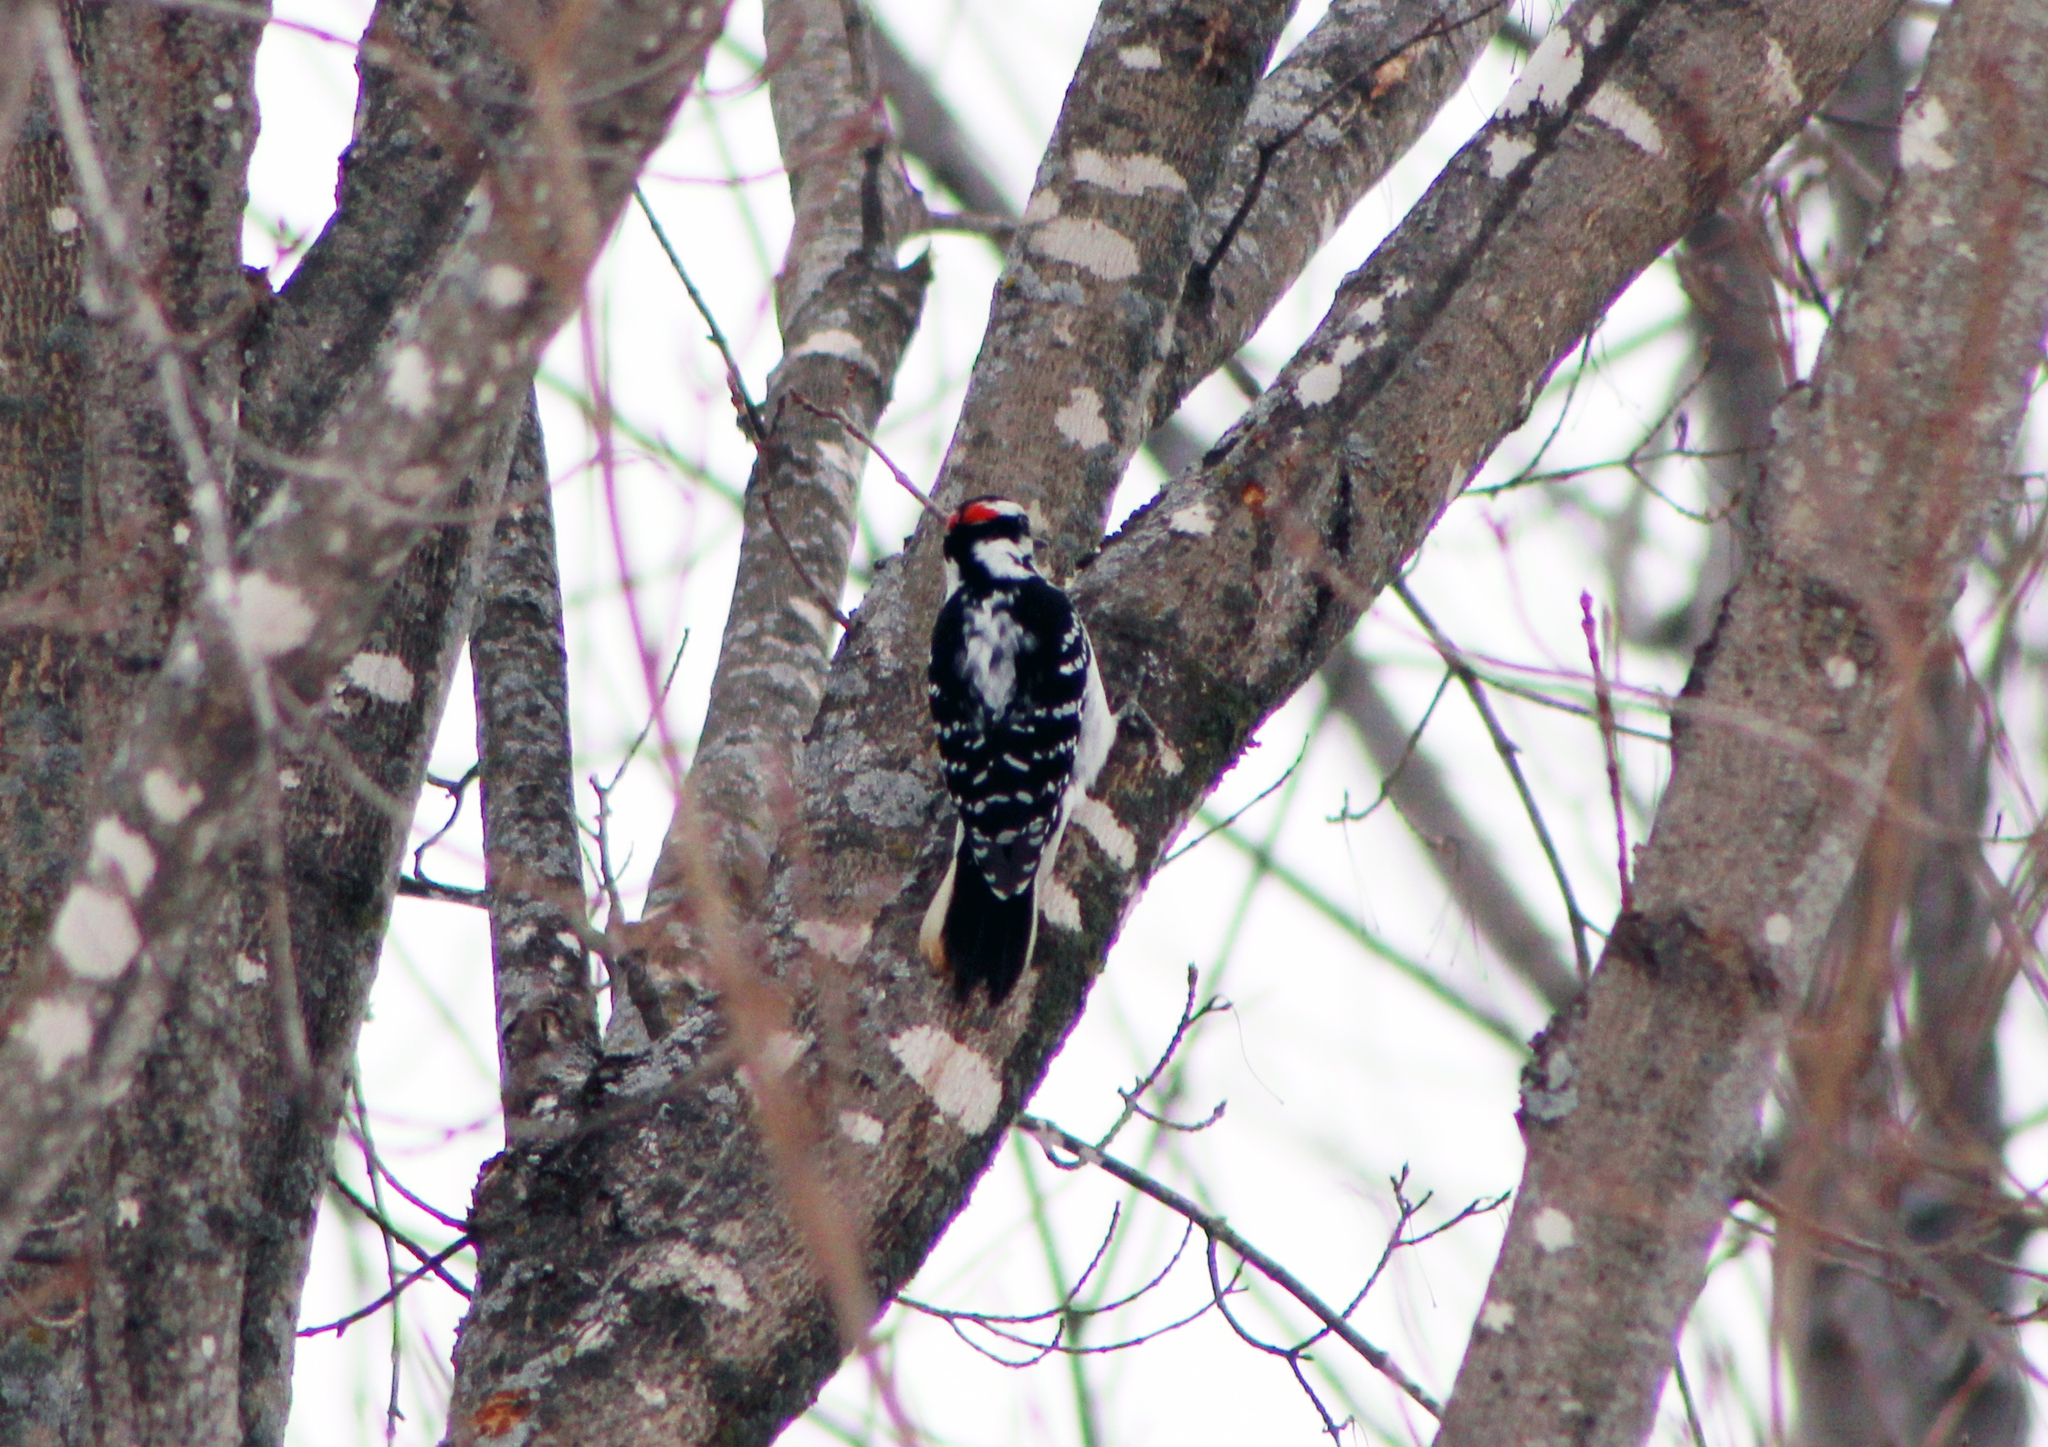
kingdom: Animalia
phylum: Chordata
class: Aves
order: Piciformes
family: Picidae
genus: Leuconotopicus
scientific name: Leuconotopicus villosus
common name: Hairy woodpecker
